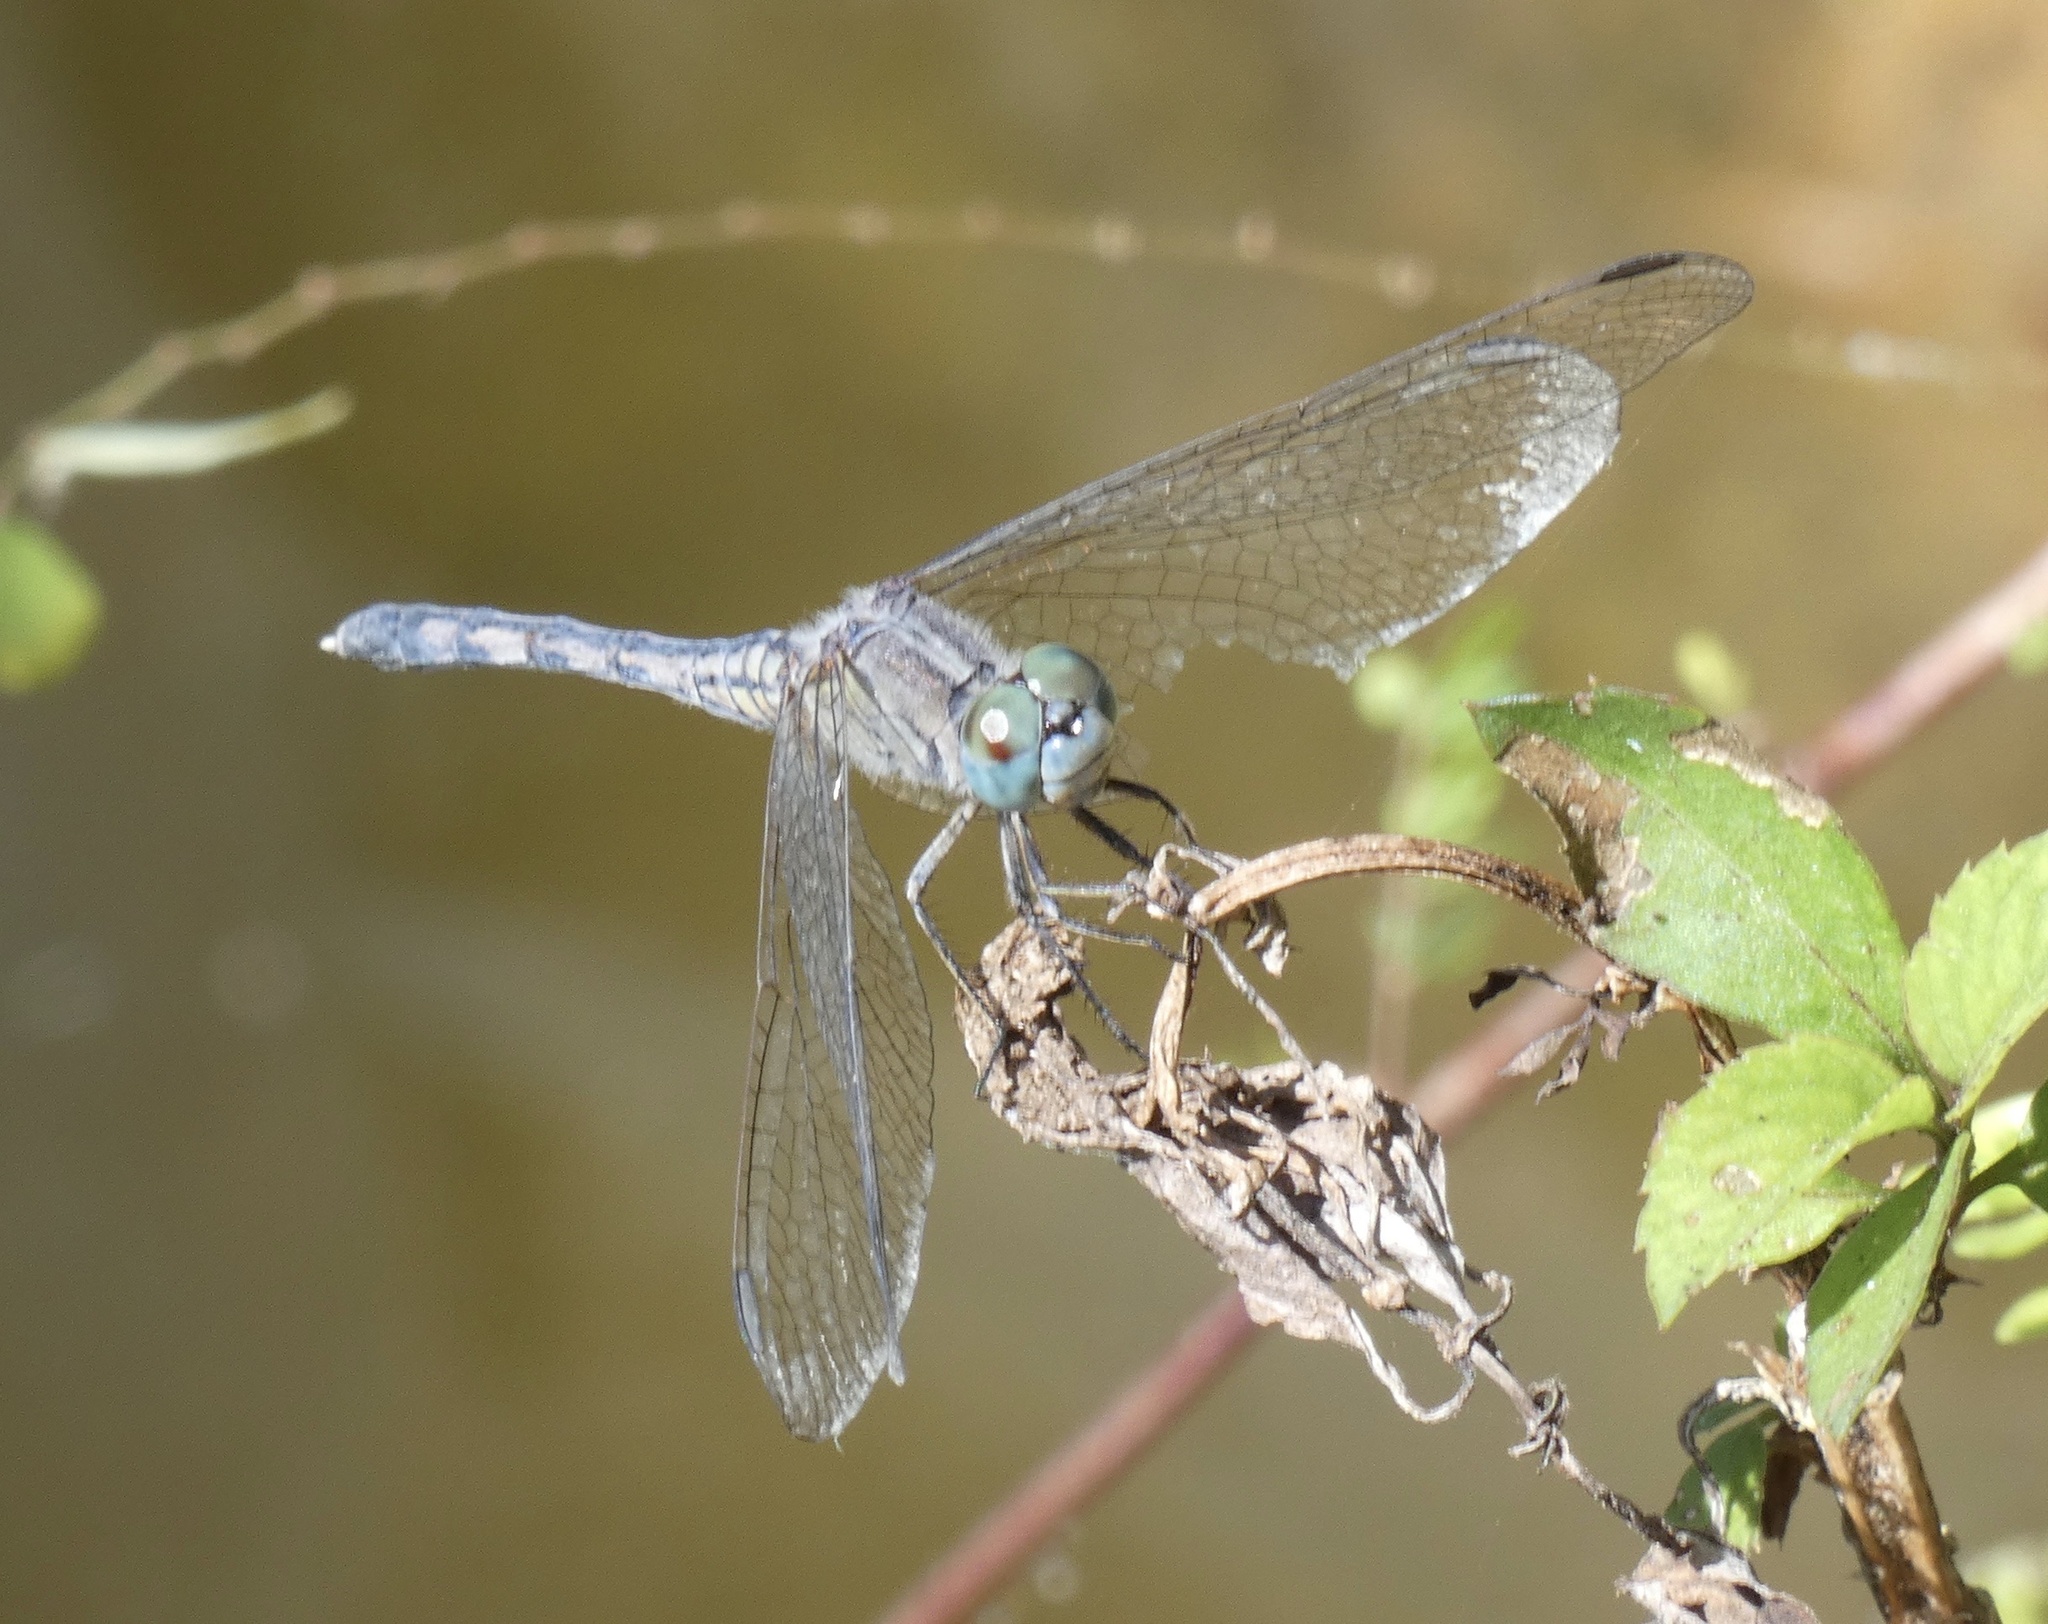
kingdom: Animalia
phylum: Arthropoda
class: Insecta
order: Odonata
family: Libellulidae
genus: Diplacodes
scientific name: Diplacodes trivialis
